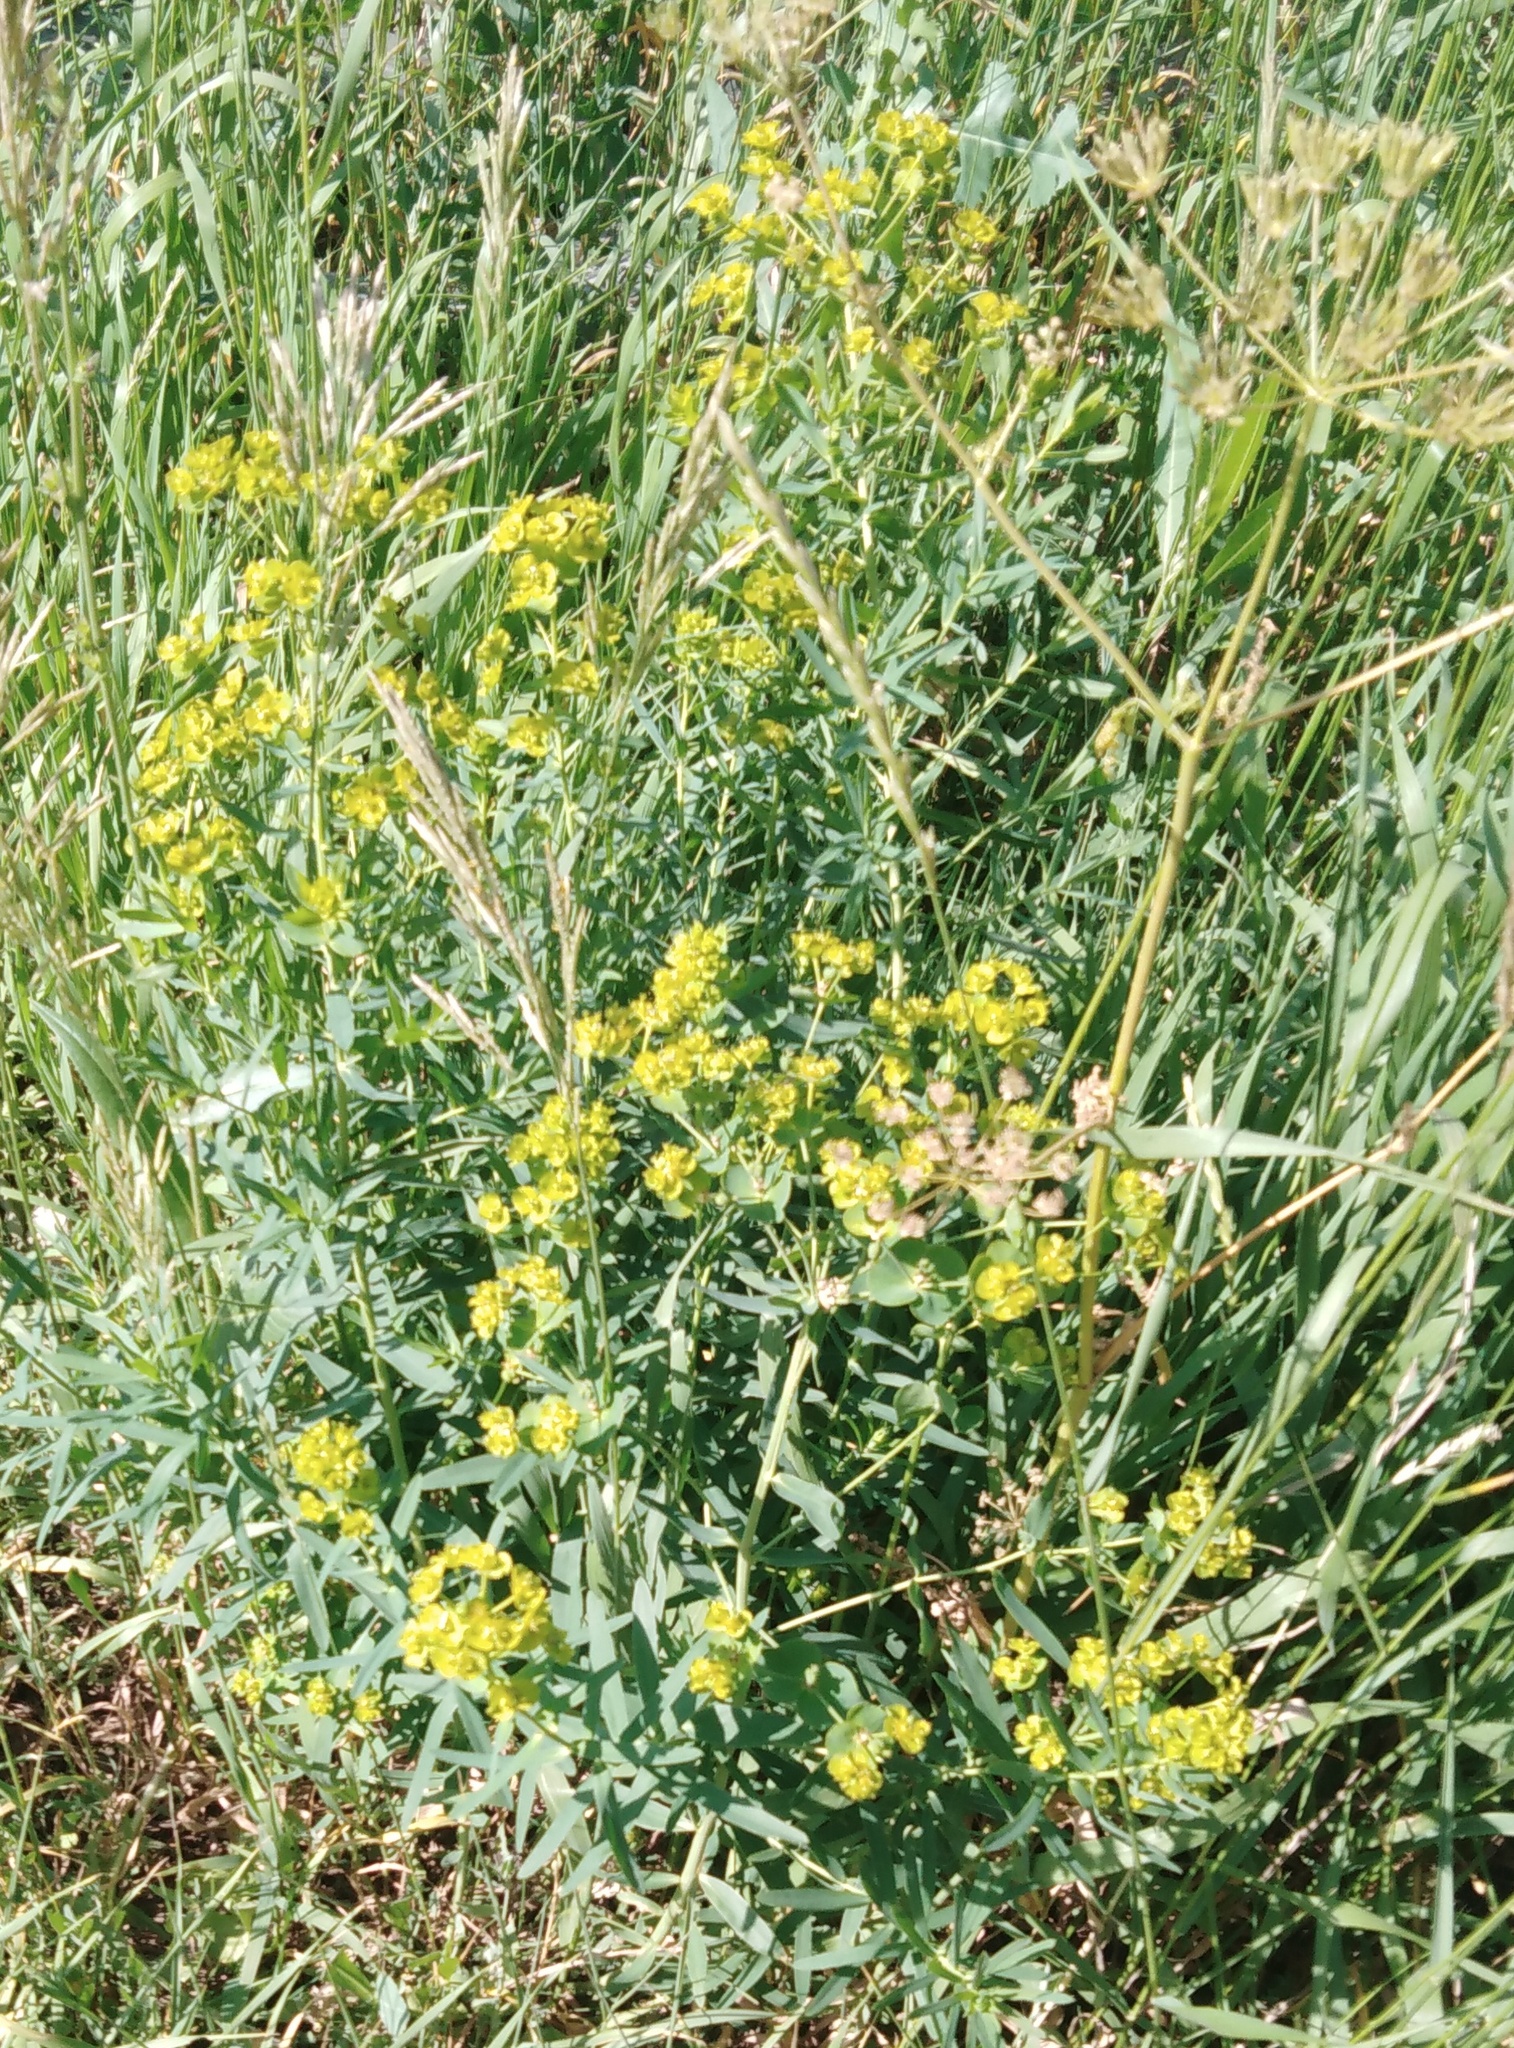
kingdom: Plantae
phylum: Tracheophyta
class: Magnoliopsida
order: Malpighiales
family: Euphorbiaceae
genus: Euphorbia
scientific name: Euphorbia virgata
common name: Leafy spurge
